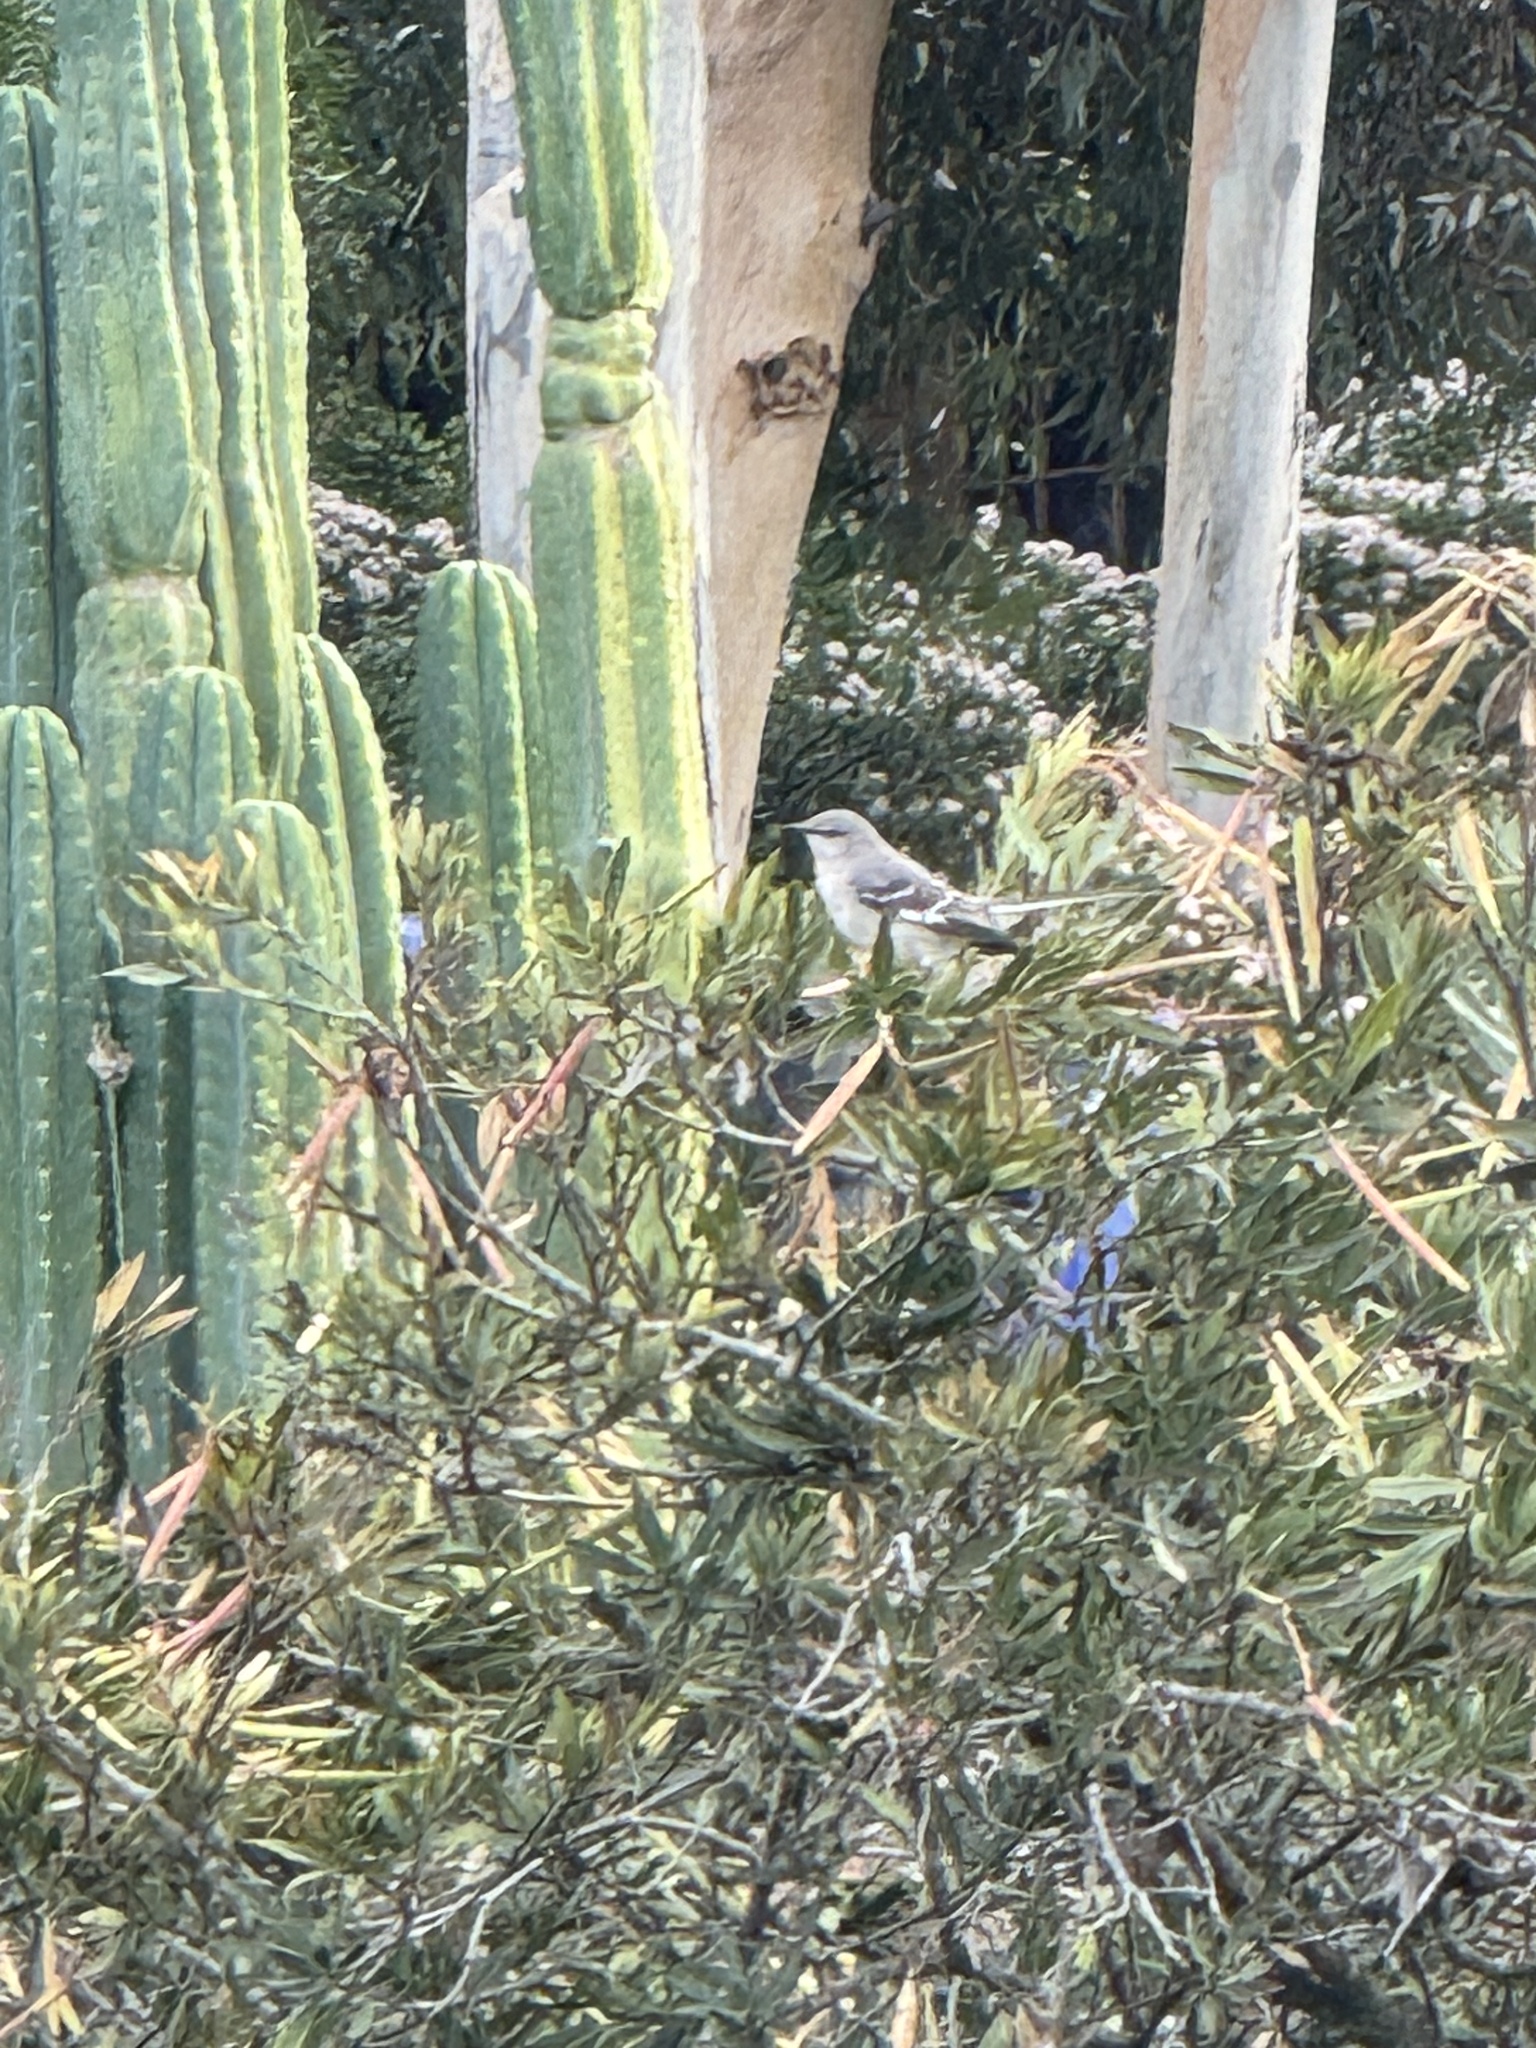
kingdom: Animalia
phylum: Chordata
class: Aves
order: Passeriformes
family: Mimidae
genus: Mimus
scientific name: Mimus polyglottos
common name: Northern mockingbird
